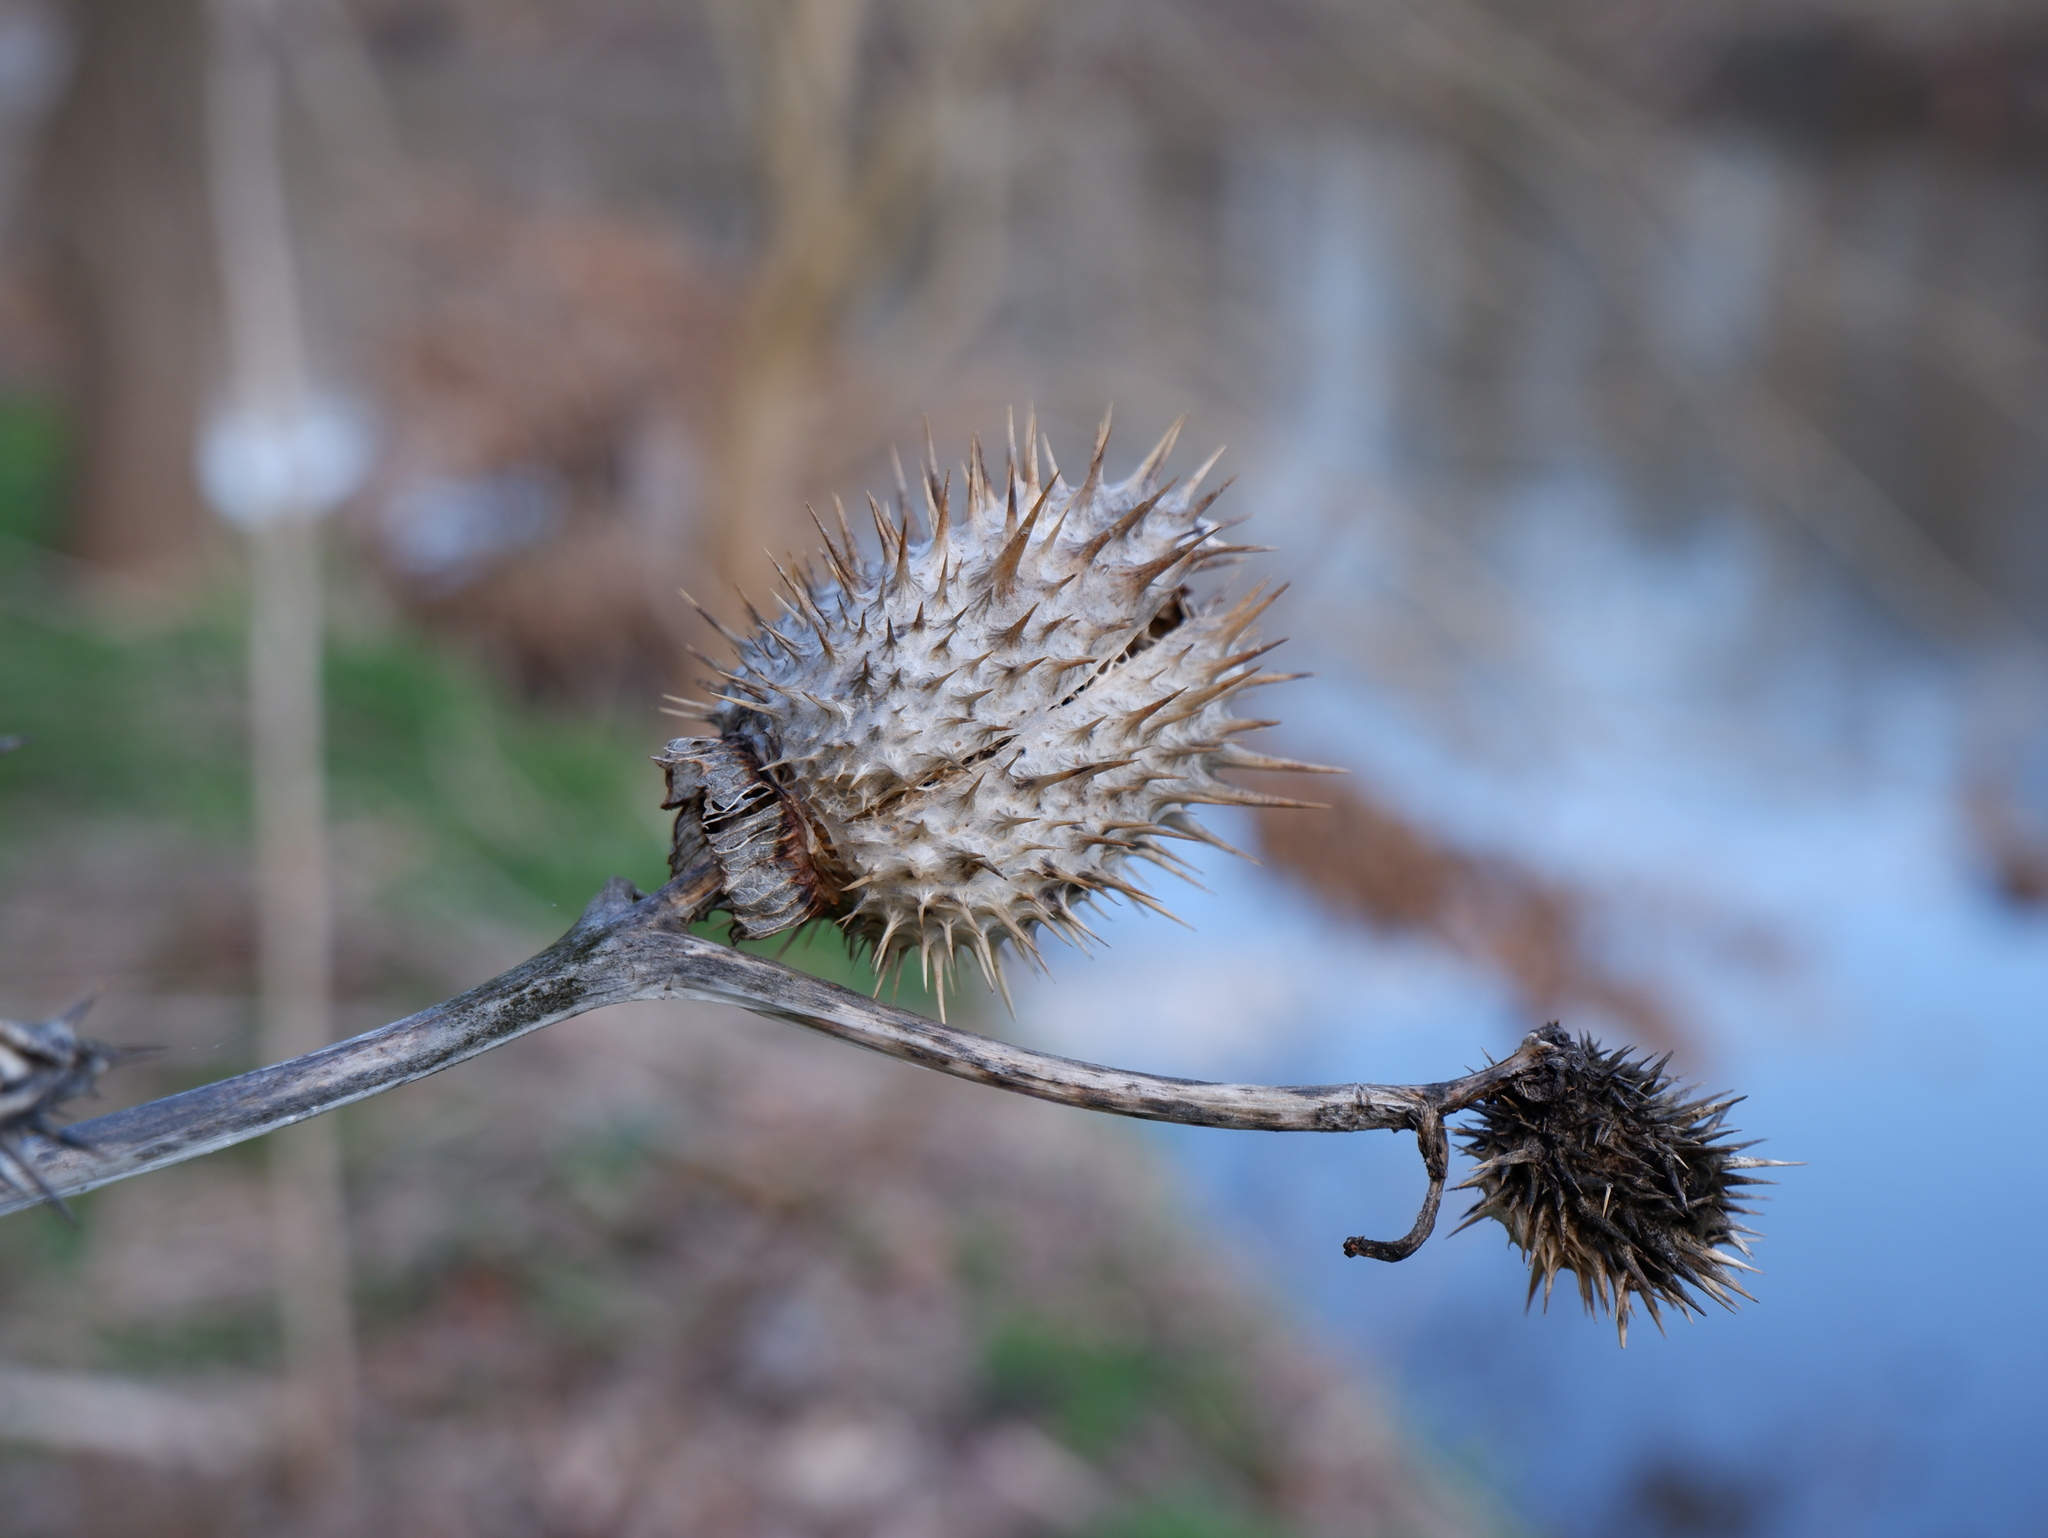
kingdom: Plantae
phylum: Tracheophyta
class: Magnoliopsida
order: Solanales
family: Solanaceae
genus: Datura
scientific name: Datura stramonium
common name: Thorn-apple
